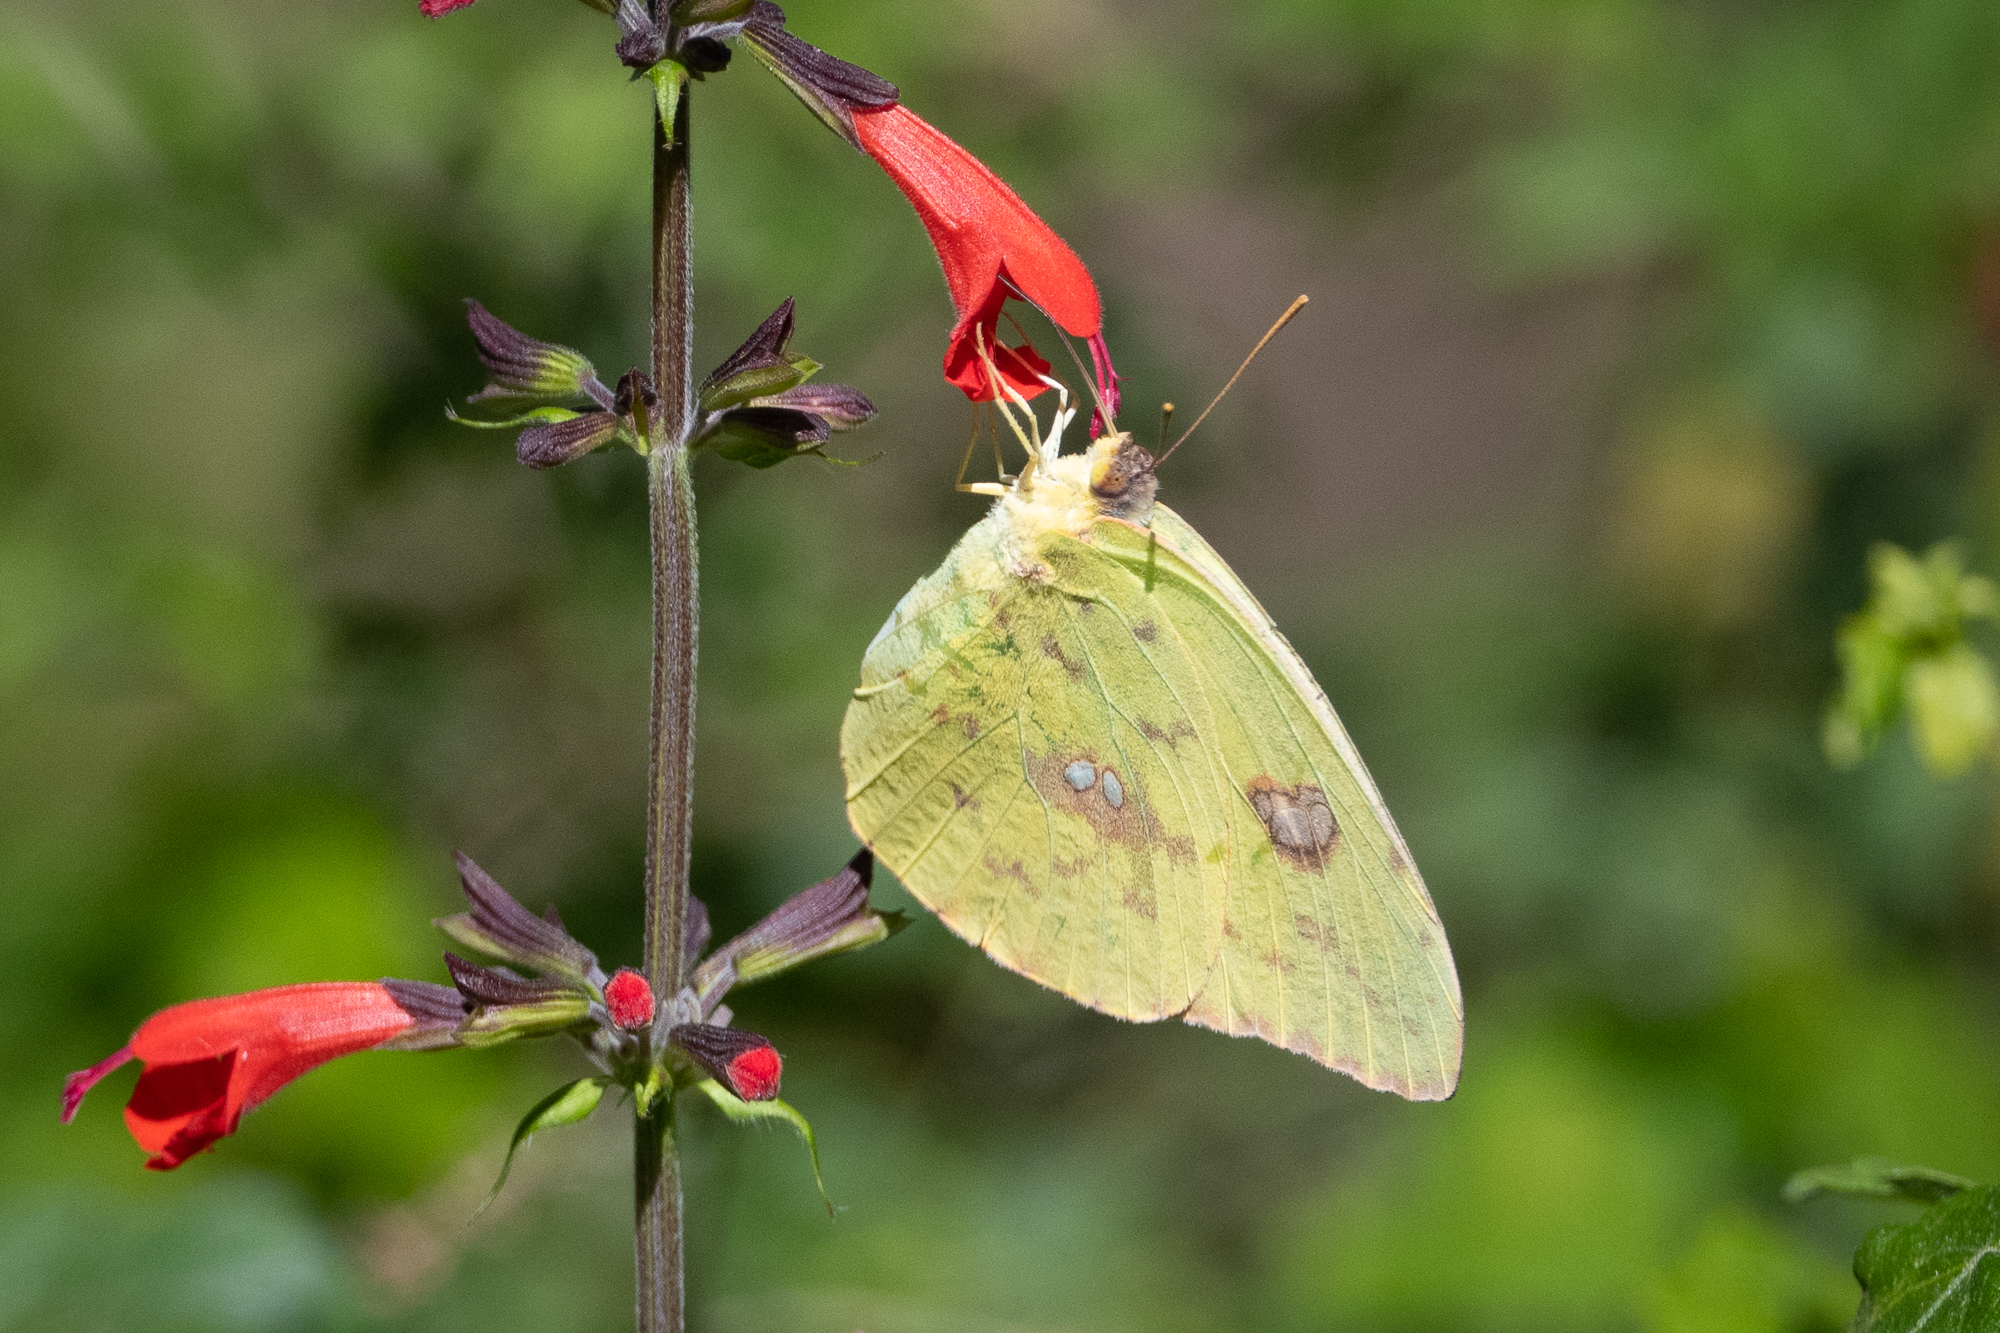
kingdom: Animalia
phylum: Arthropoda
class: Insecta
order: Lepidoptera
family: Pieridae
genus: Phoebis
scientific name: Phoebis sennae
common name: Cloudless sulphur
